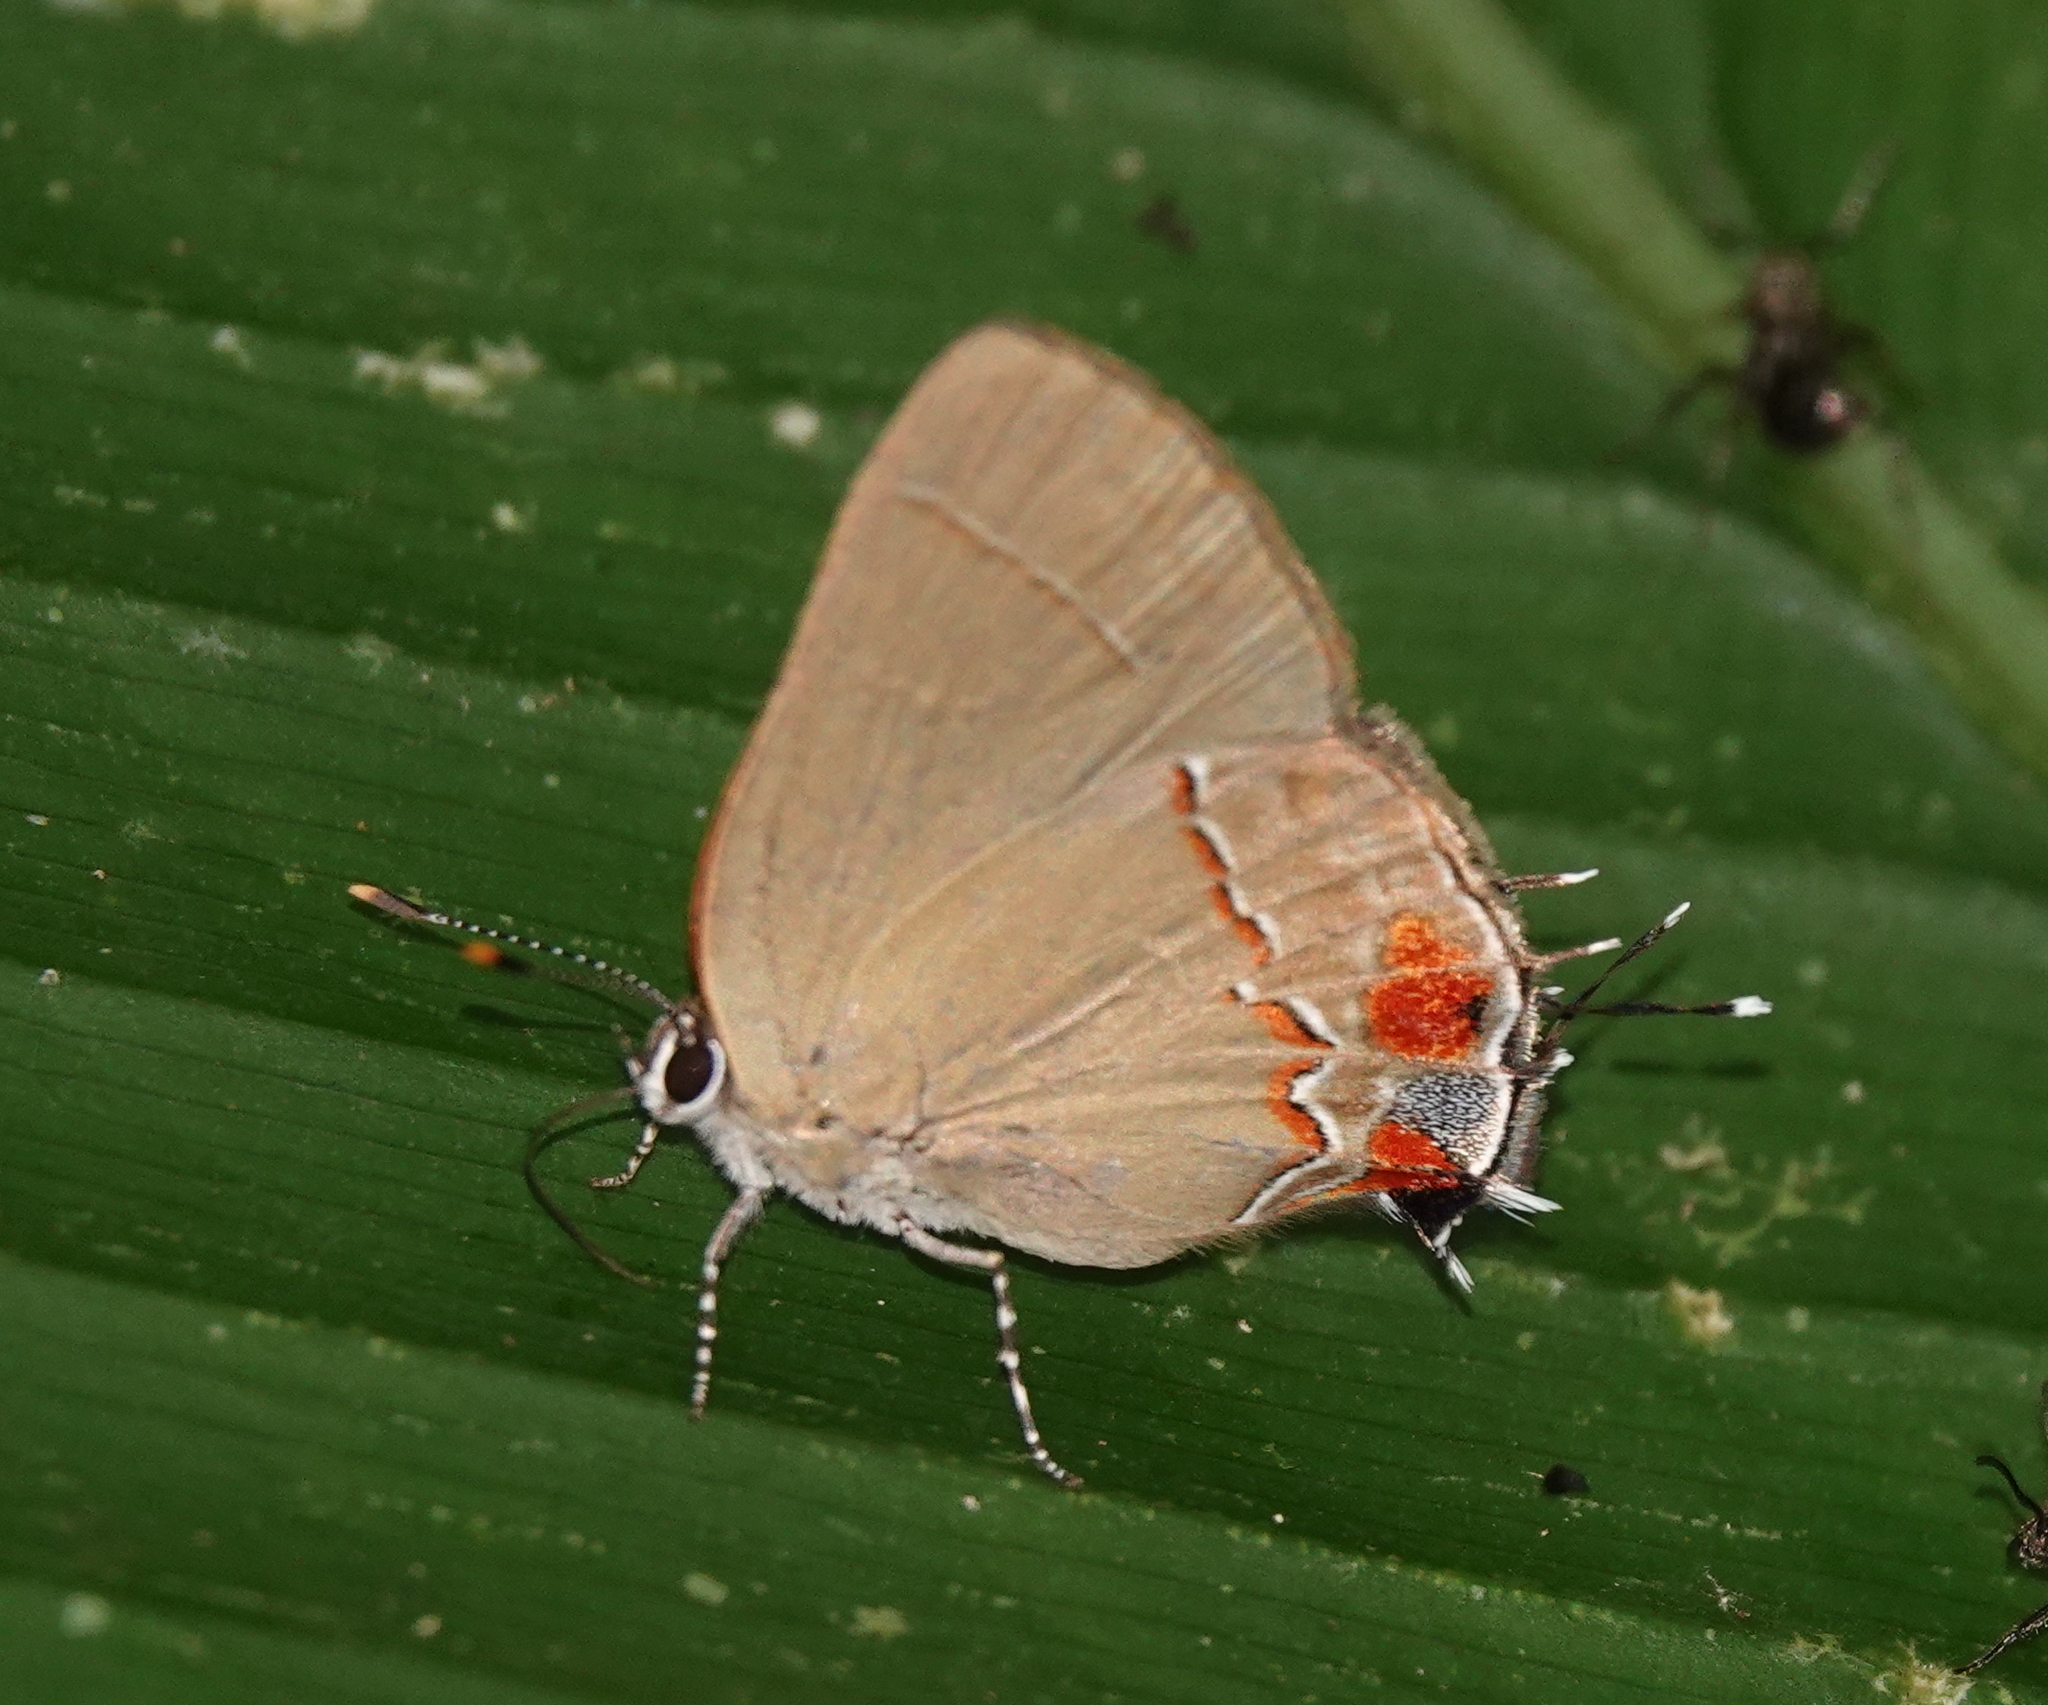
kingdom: Animalia
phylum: Arthropoda
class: Insecta
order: Lepidoptera
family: Lycaenidae
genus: Thecla
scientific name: Thecla ceromia
